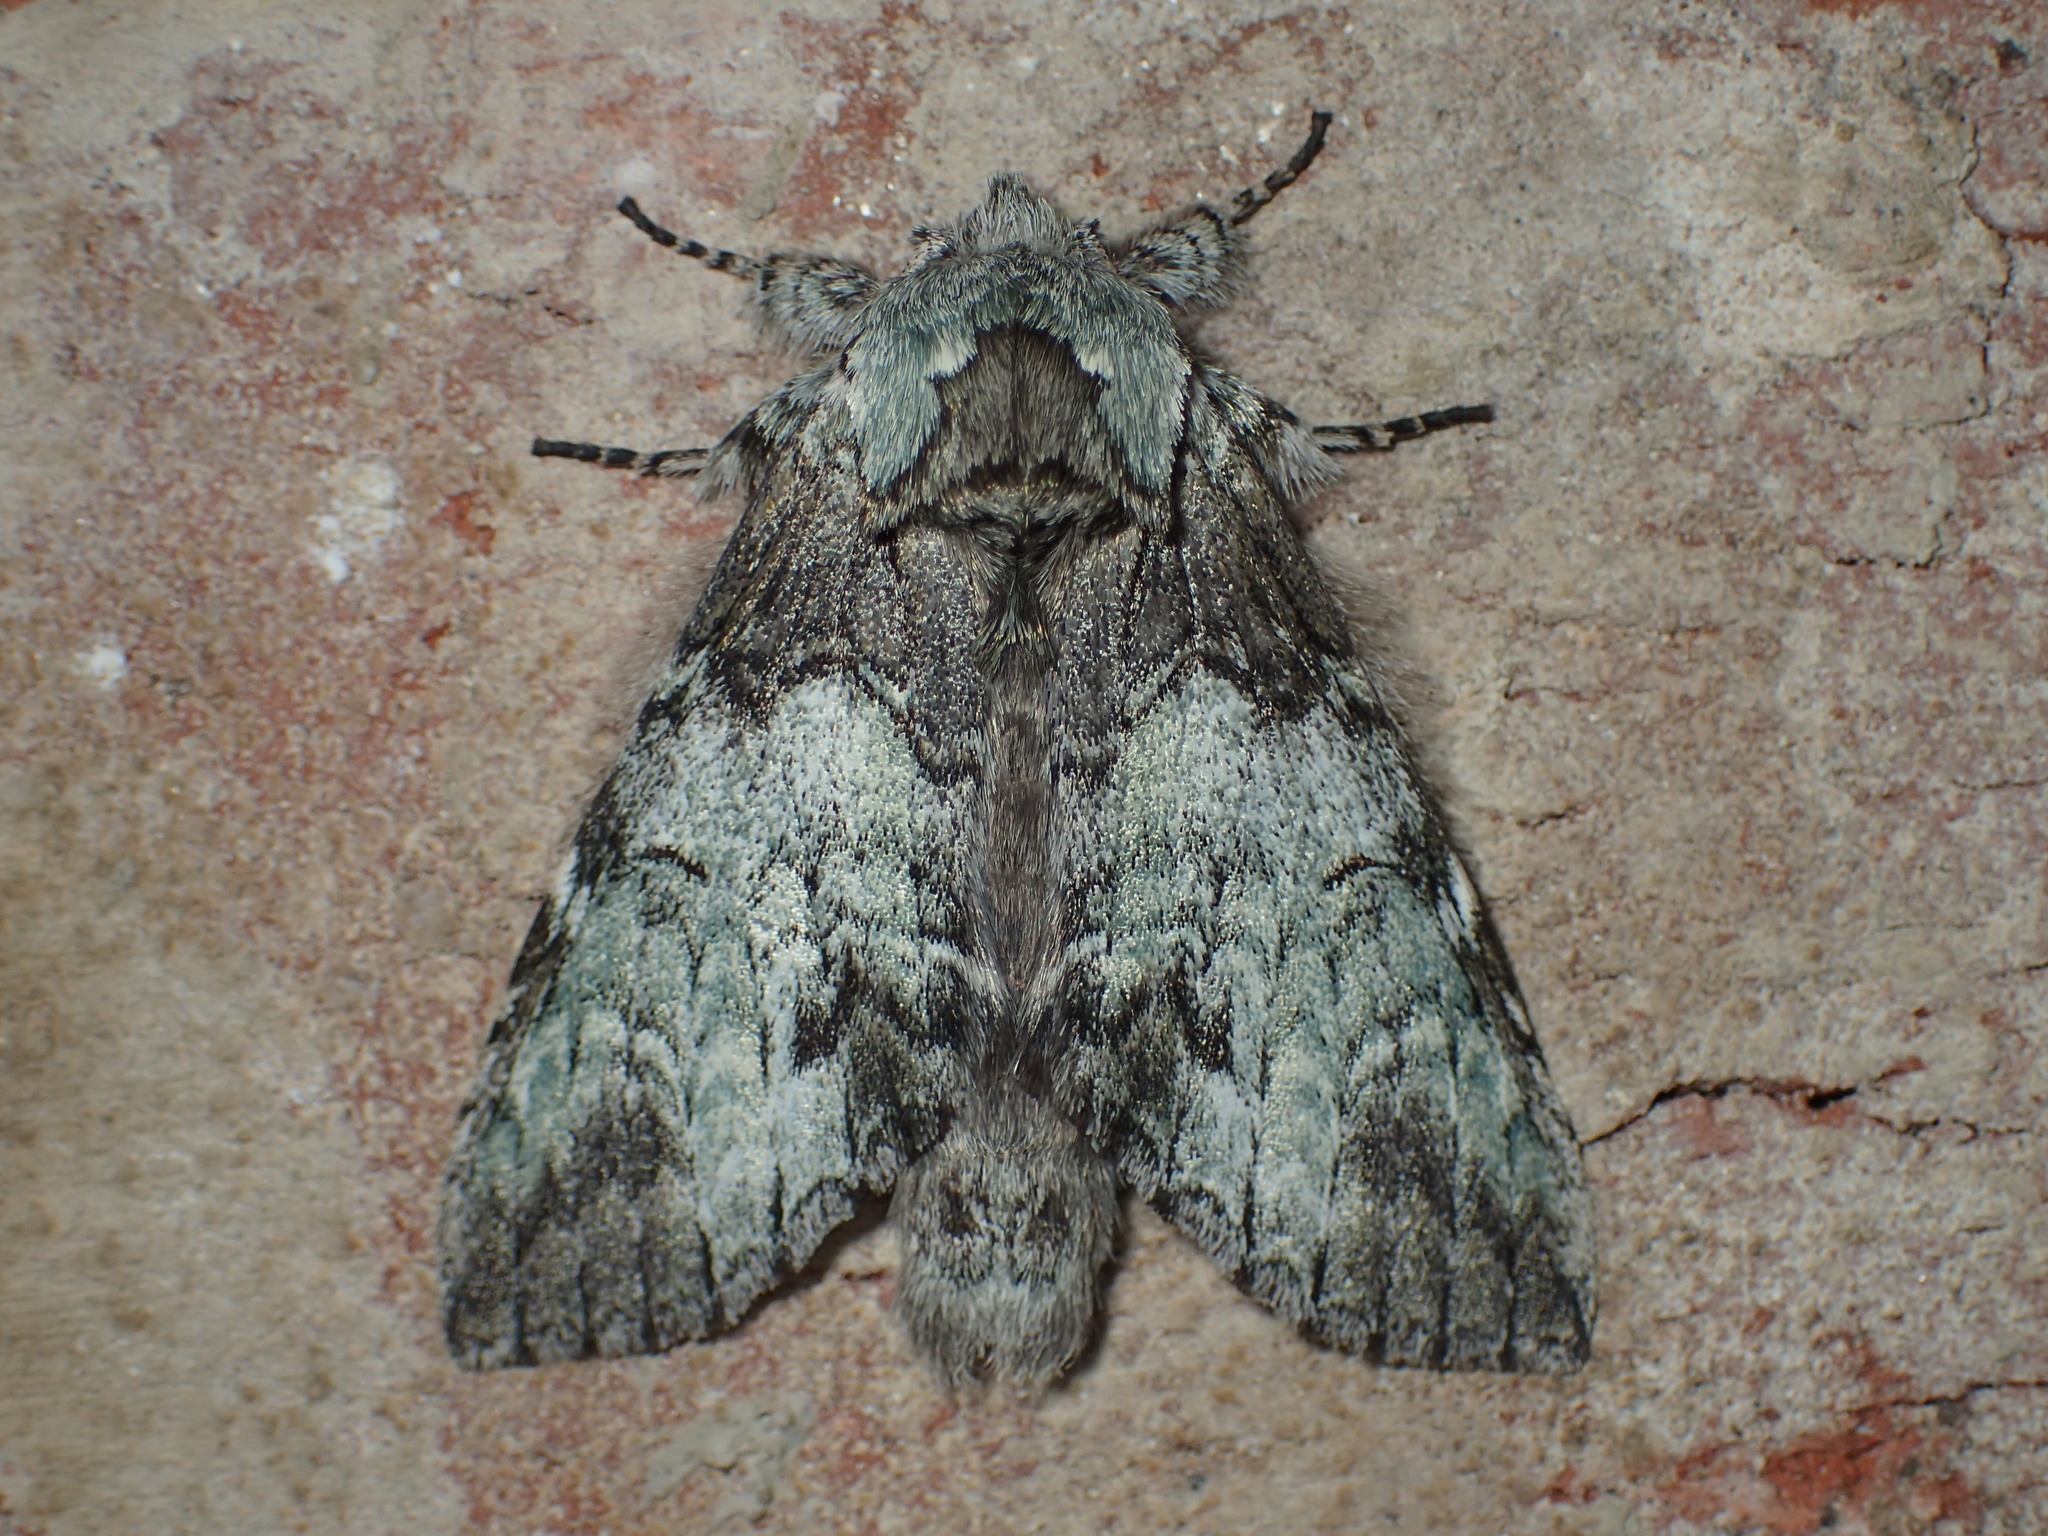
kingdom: Animalia
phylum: Arthropoda
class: Insecta
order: Lepidoptera
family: Notodontidae
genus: Macrurocampa
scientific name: Macrurocampa marthesia
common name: Mottled prominent
